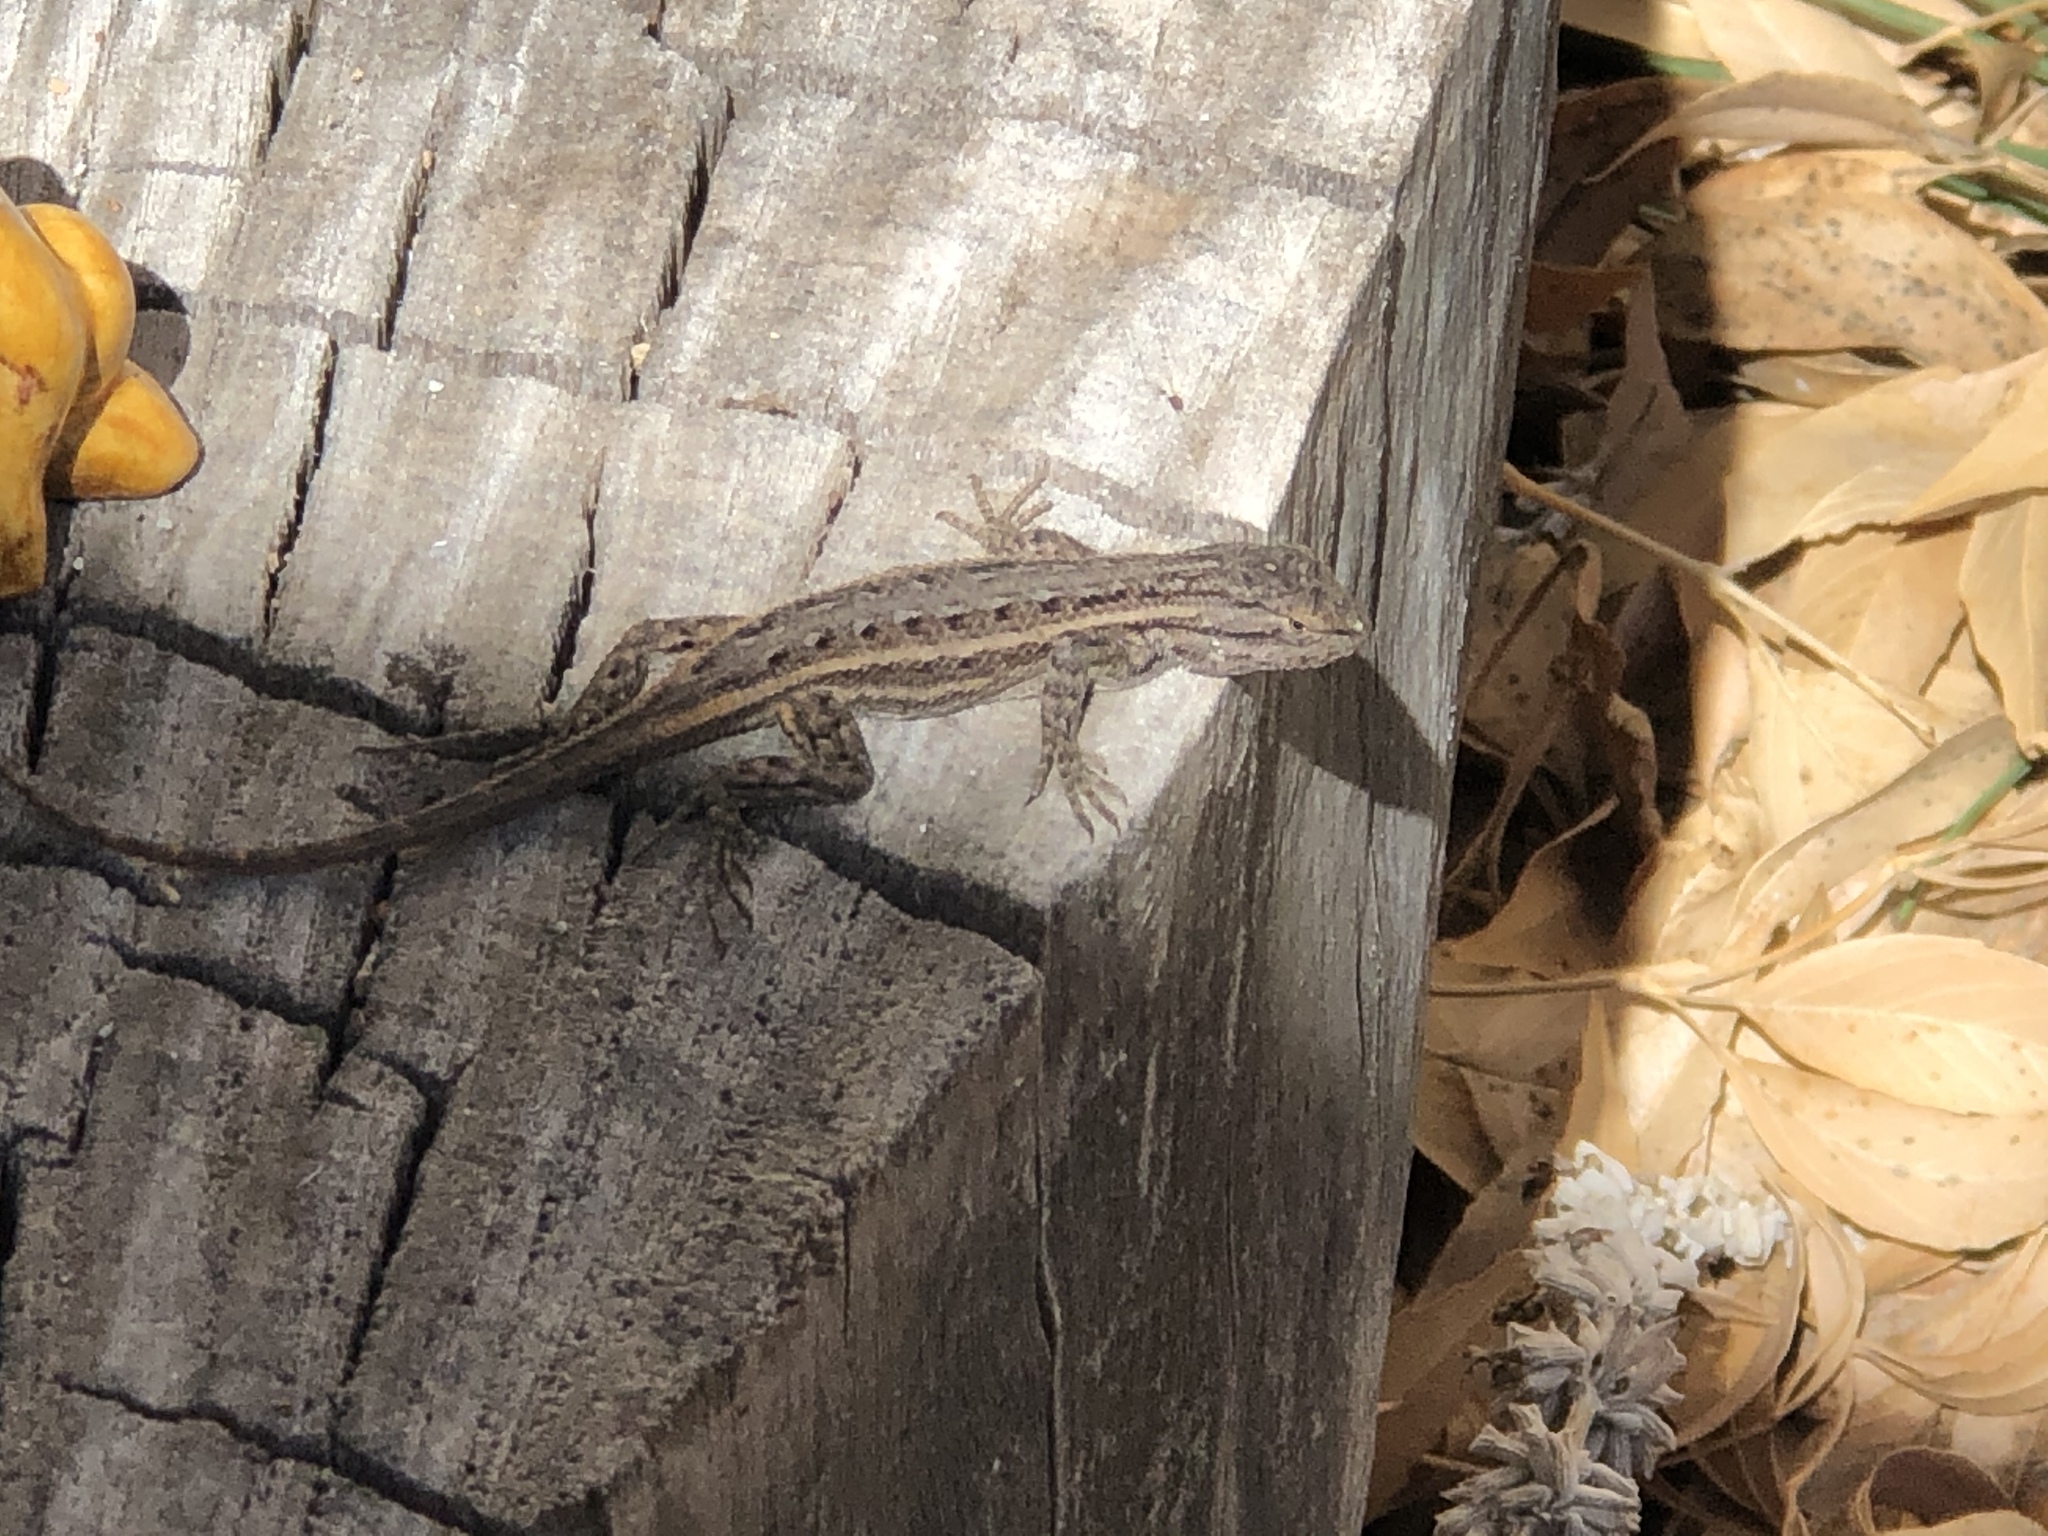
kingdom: Animalia
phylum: Chordata
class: Squamata
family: Phrynosomatidae
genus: Sceloporus
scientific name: Sceloporus cowlesi
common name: White sands prairie lizard
